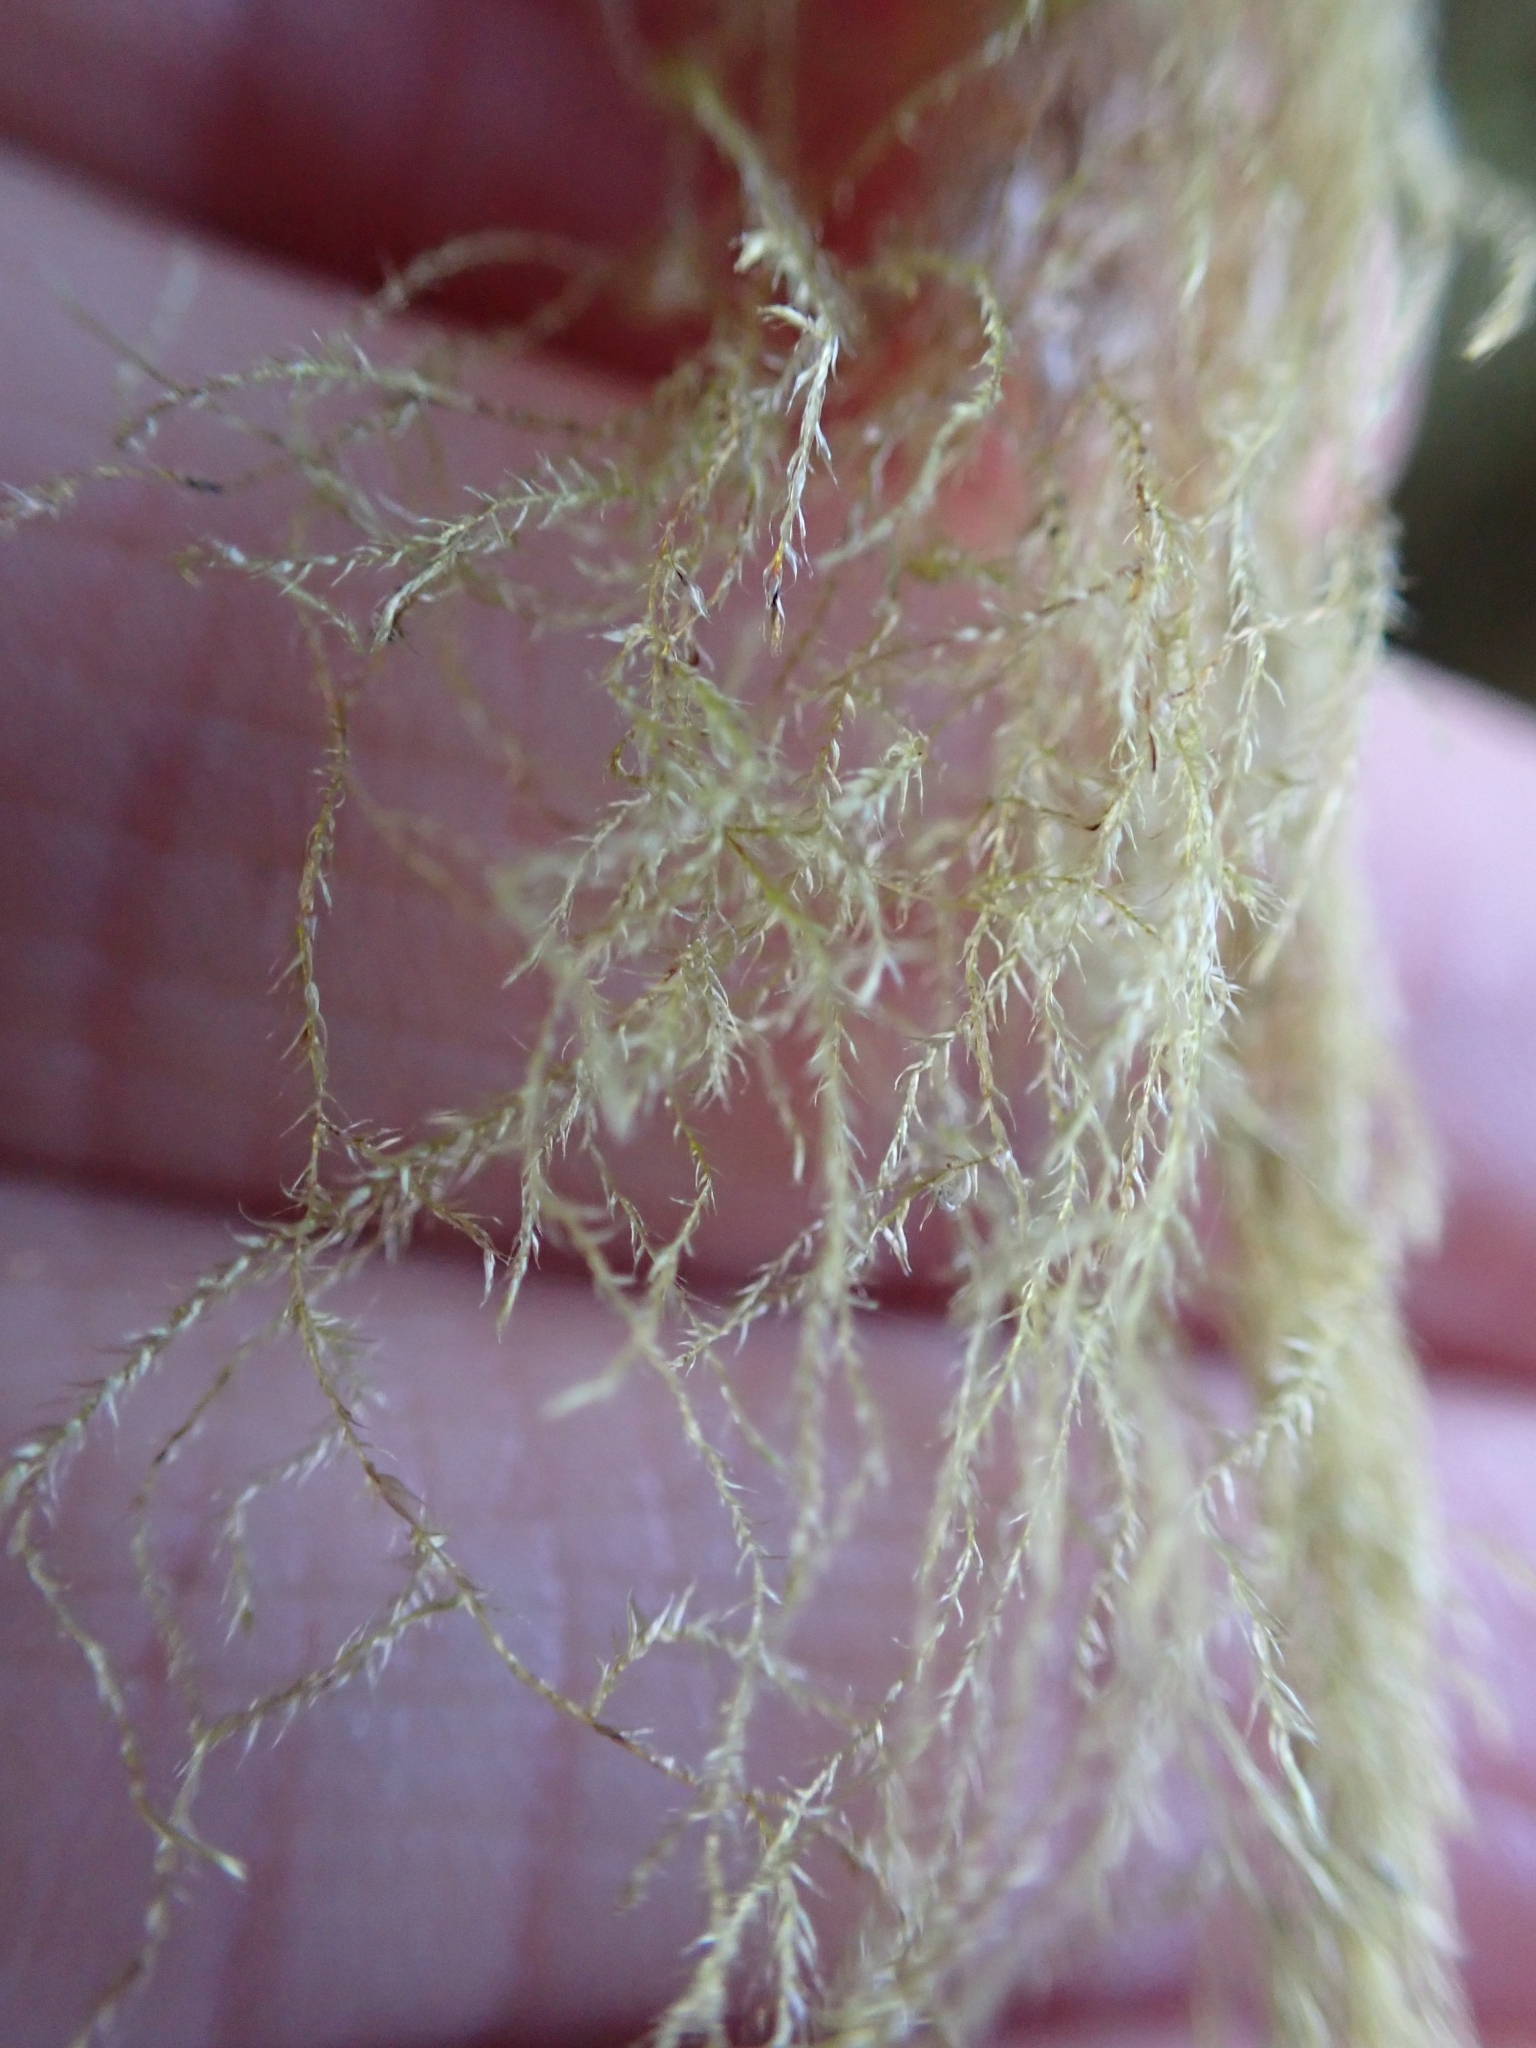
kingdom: Plantae
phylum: Bryophyta
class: Bryopsida
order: Hypnales
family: Lembophyllaceae
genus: Pseudisothecium
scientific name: Pseudisothecium stoloniferum
